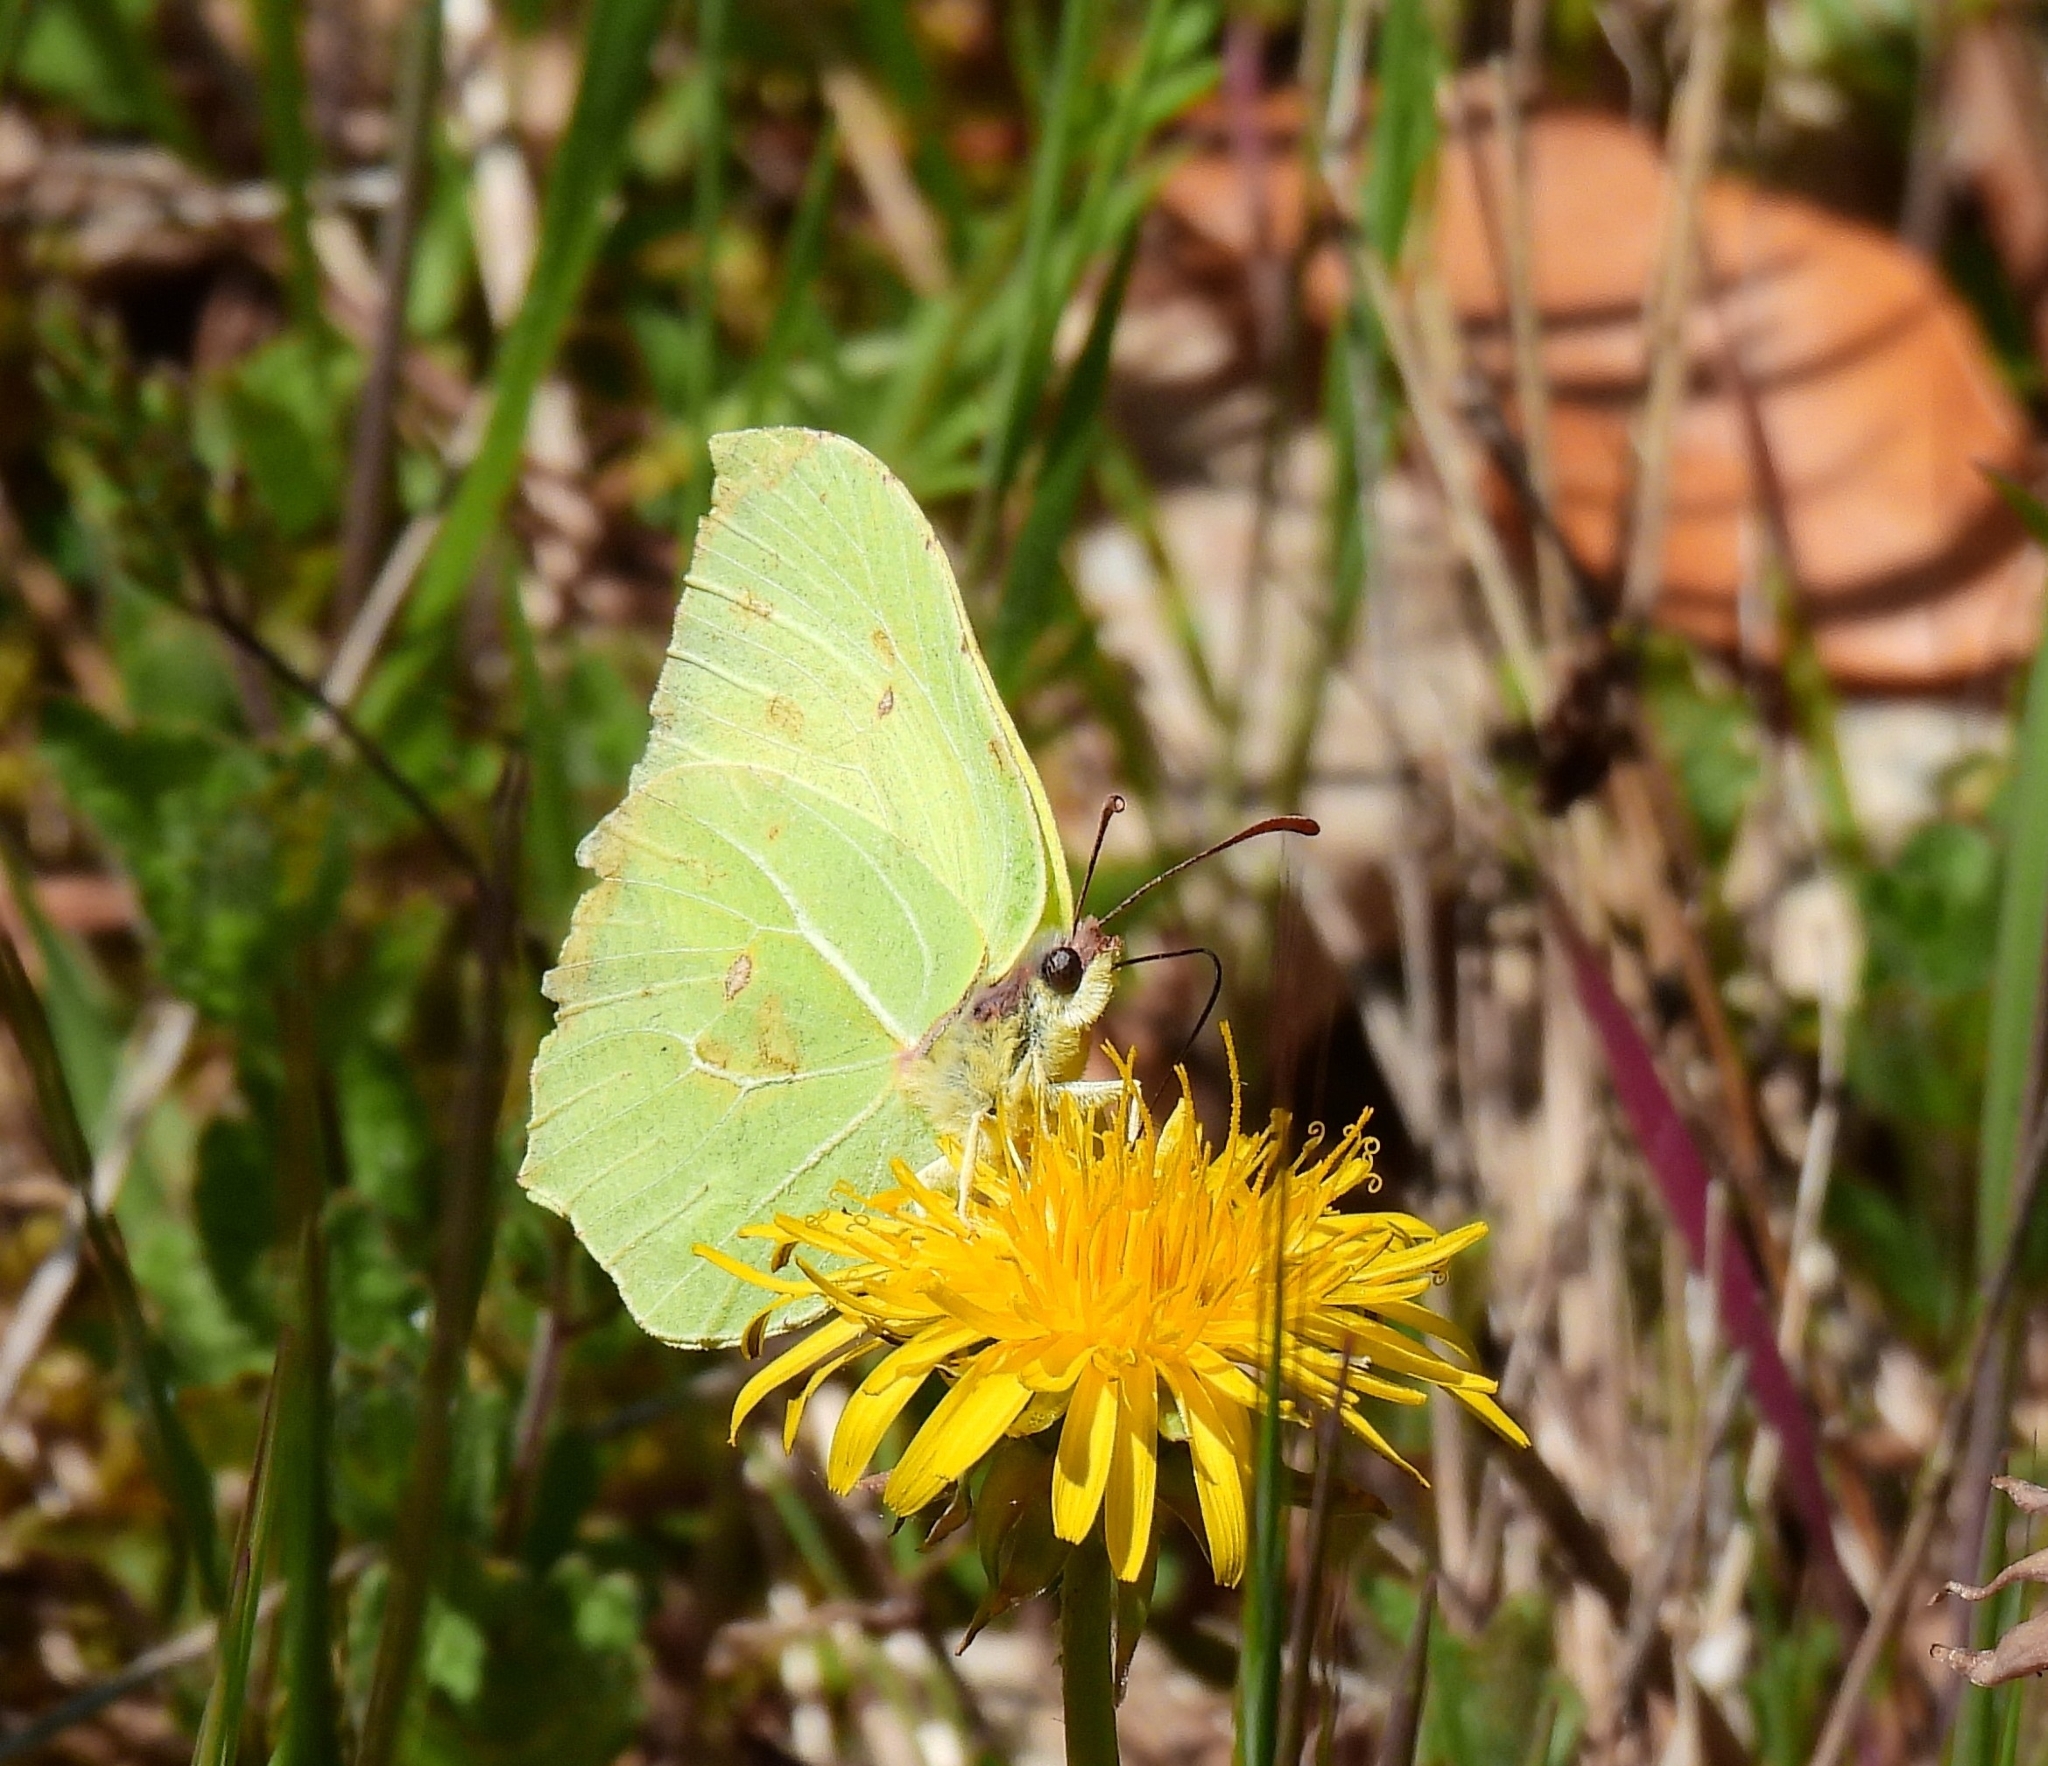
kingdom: Animalia
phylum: Arthropoda
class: Insecta
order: Lepidoptera
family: Pieridae
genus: Gonepteryx
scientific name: Gonepteryx rhamni
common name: Brimstone
